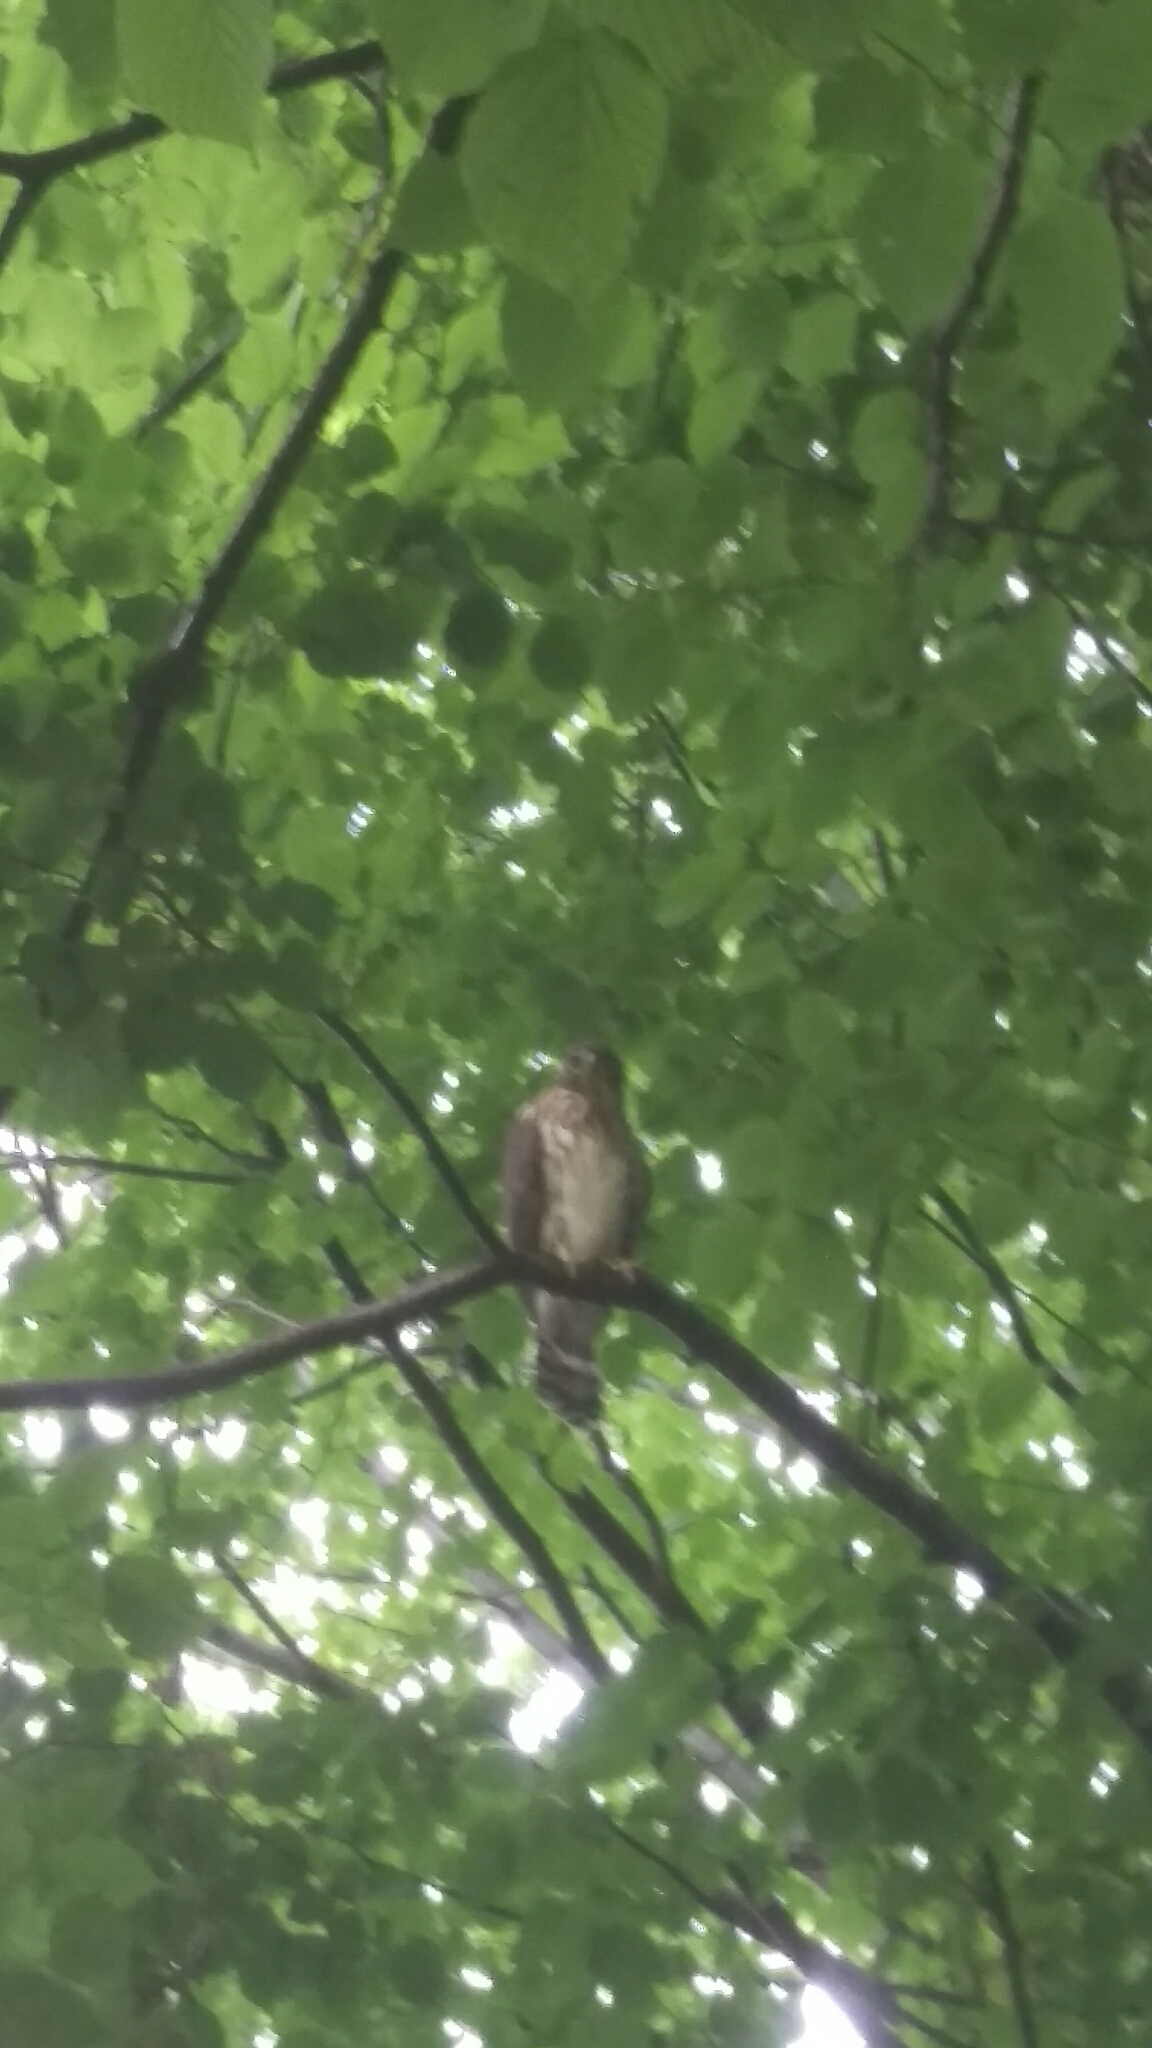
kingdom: Animalia
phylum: Chordata
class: Aves
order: Accipitriformes
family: Accipitridae
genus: Accipiter
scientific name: Accipiter cooperii
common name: Cooper's hawk
